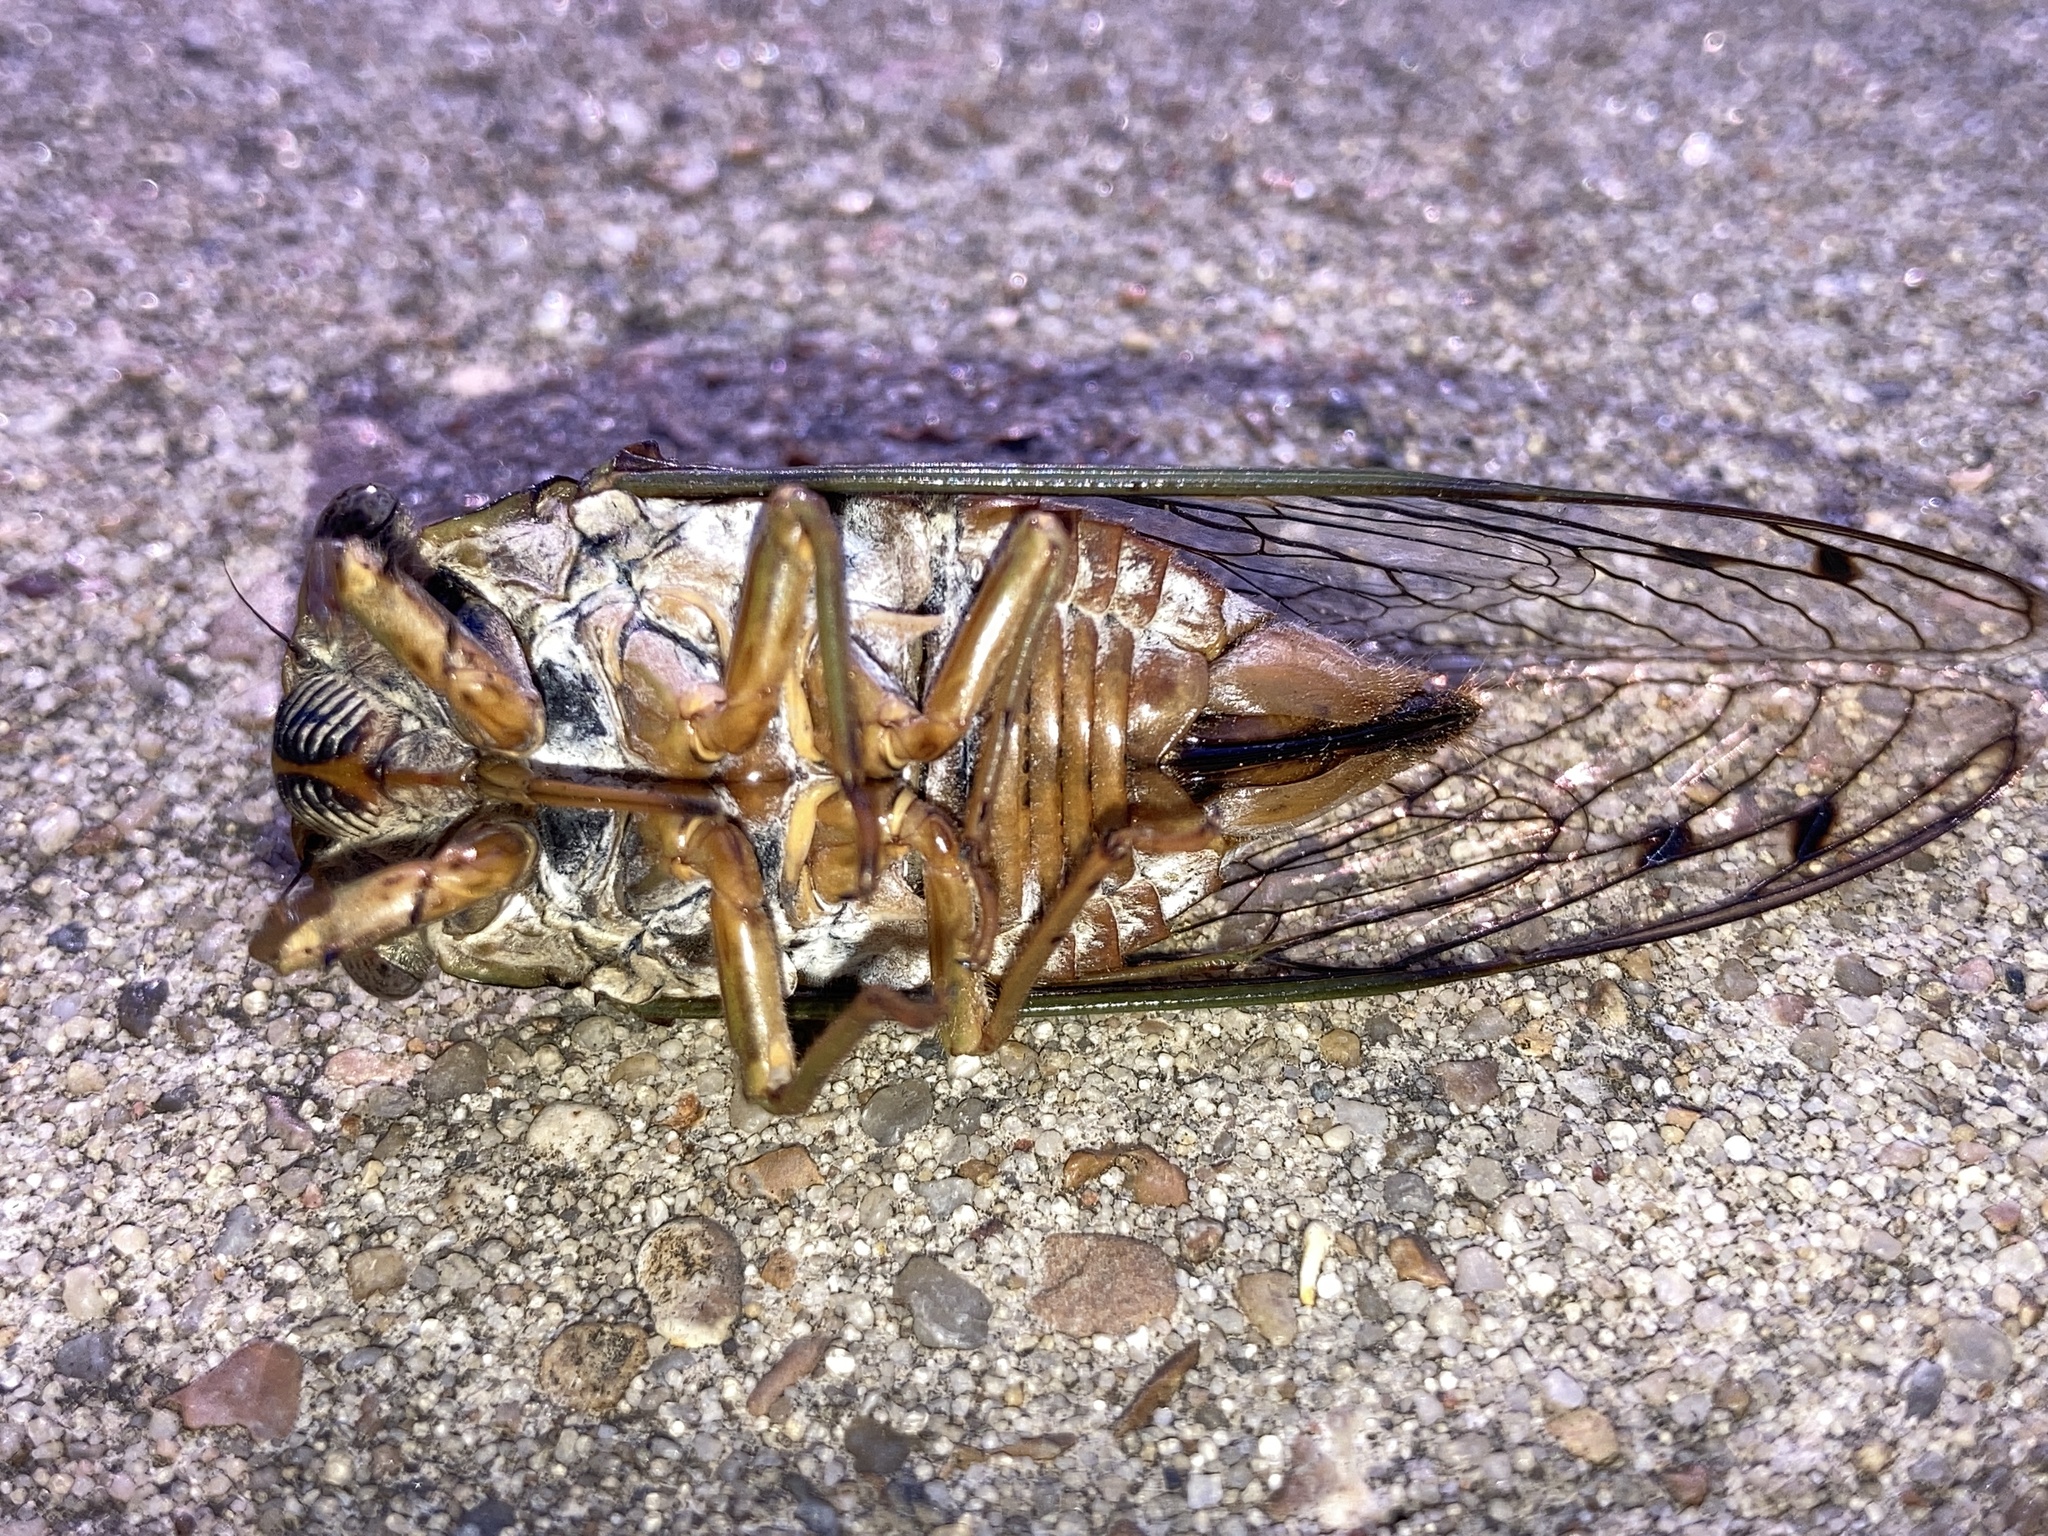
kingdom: Animalia
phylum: Arthropoda
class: Insecta
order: Hemiptera
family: Cicadidae
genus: Megatibicen
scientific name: Megatibicen resh
